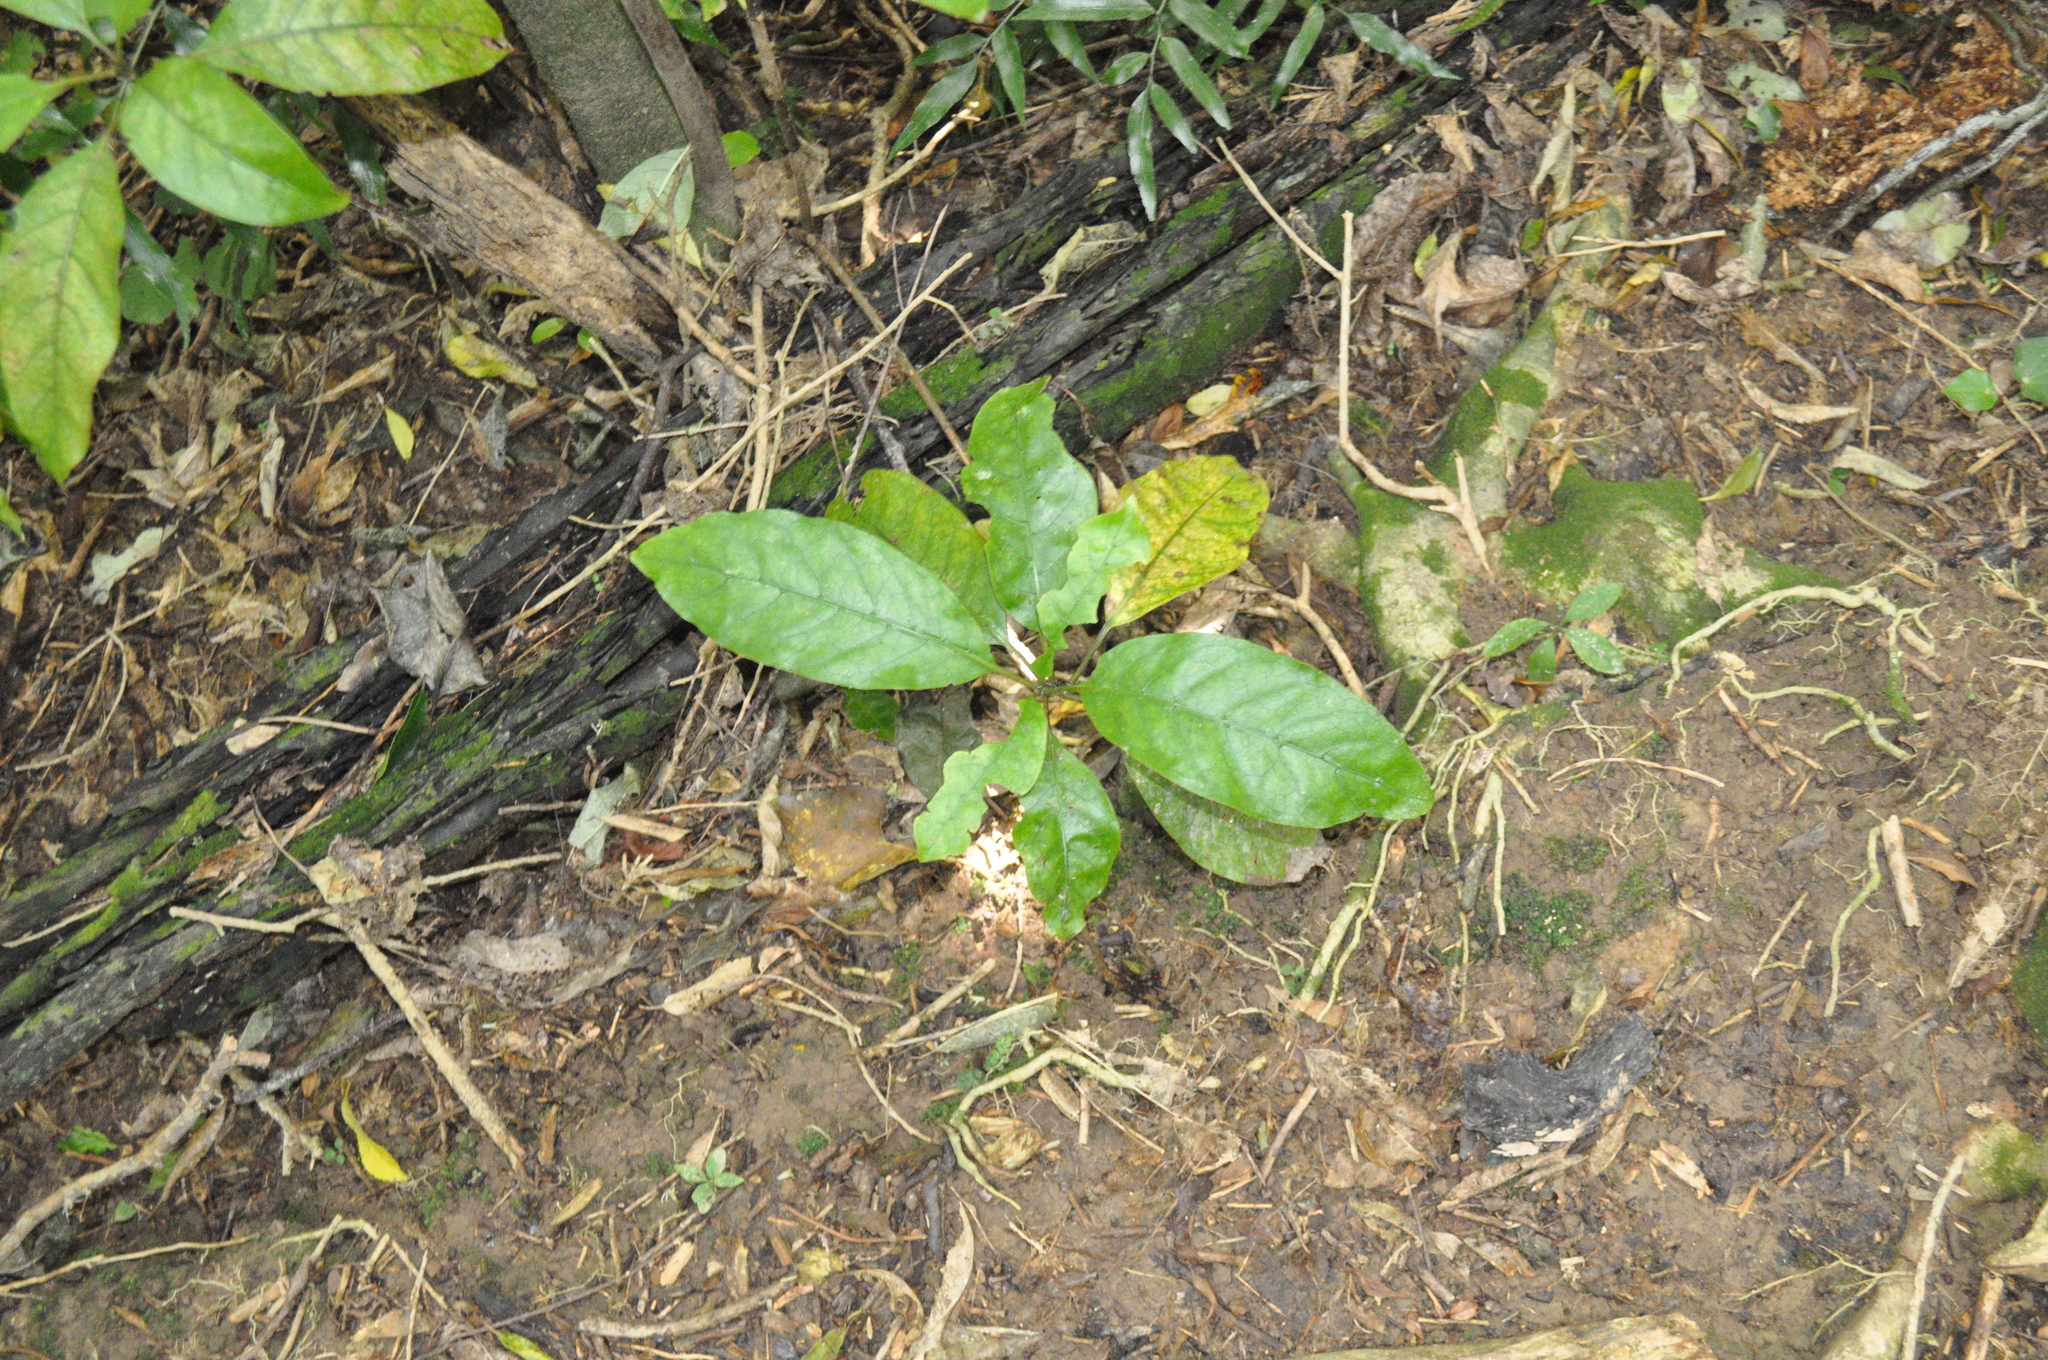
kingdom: Plantae
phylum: Tracheophyta
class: Magnoliopsida
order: Gentianales
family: Rubiaceae
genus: Coprosma
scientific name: Coprosma autumnalis
